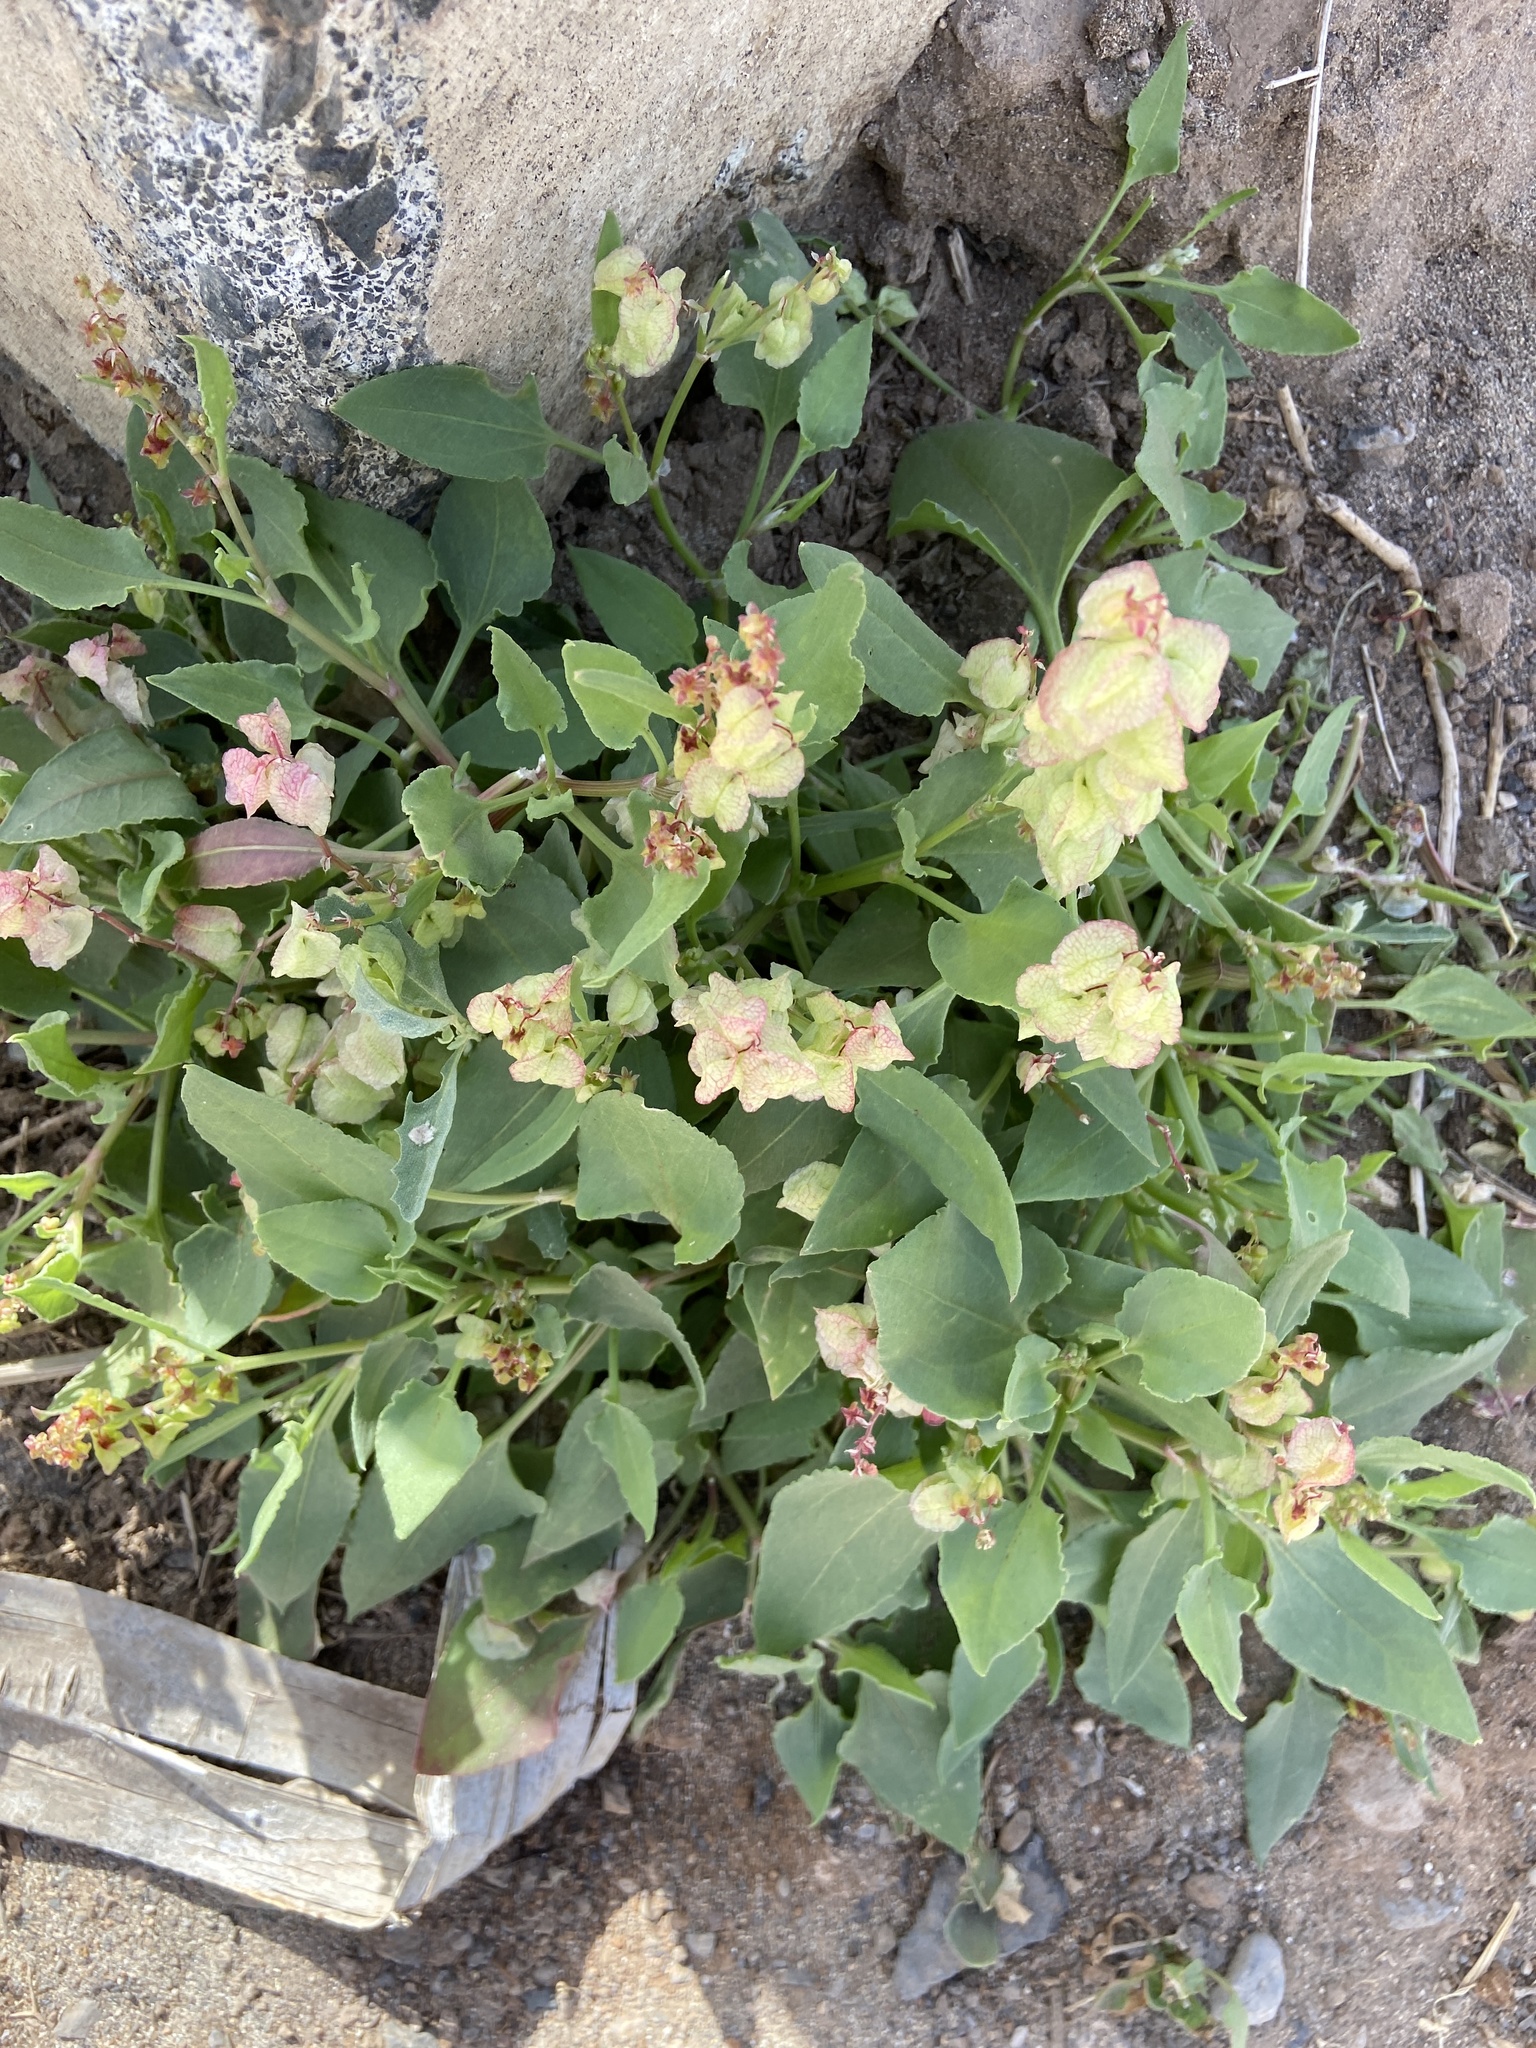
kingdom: Plantae
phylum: Tracheophyta
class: Magnoliopsida
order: Caryophyllales
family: Polygonaceae
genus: Rumex
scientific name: Rumex vesicarius
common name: Bladder dock
